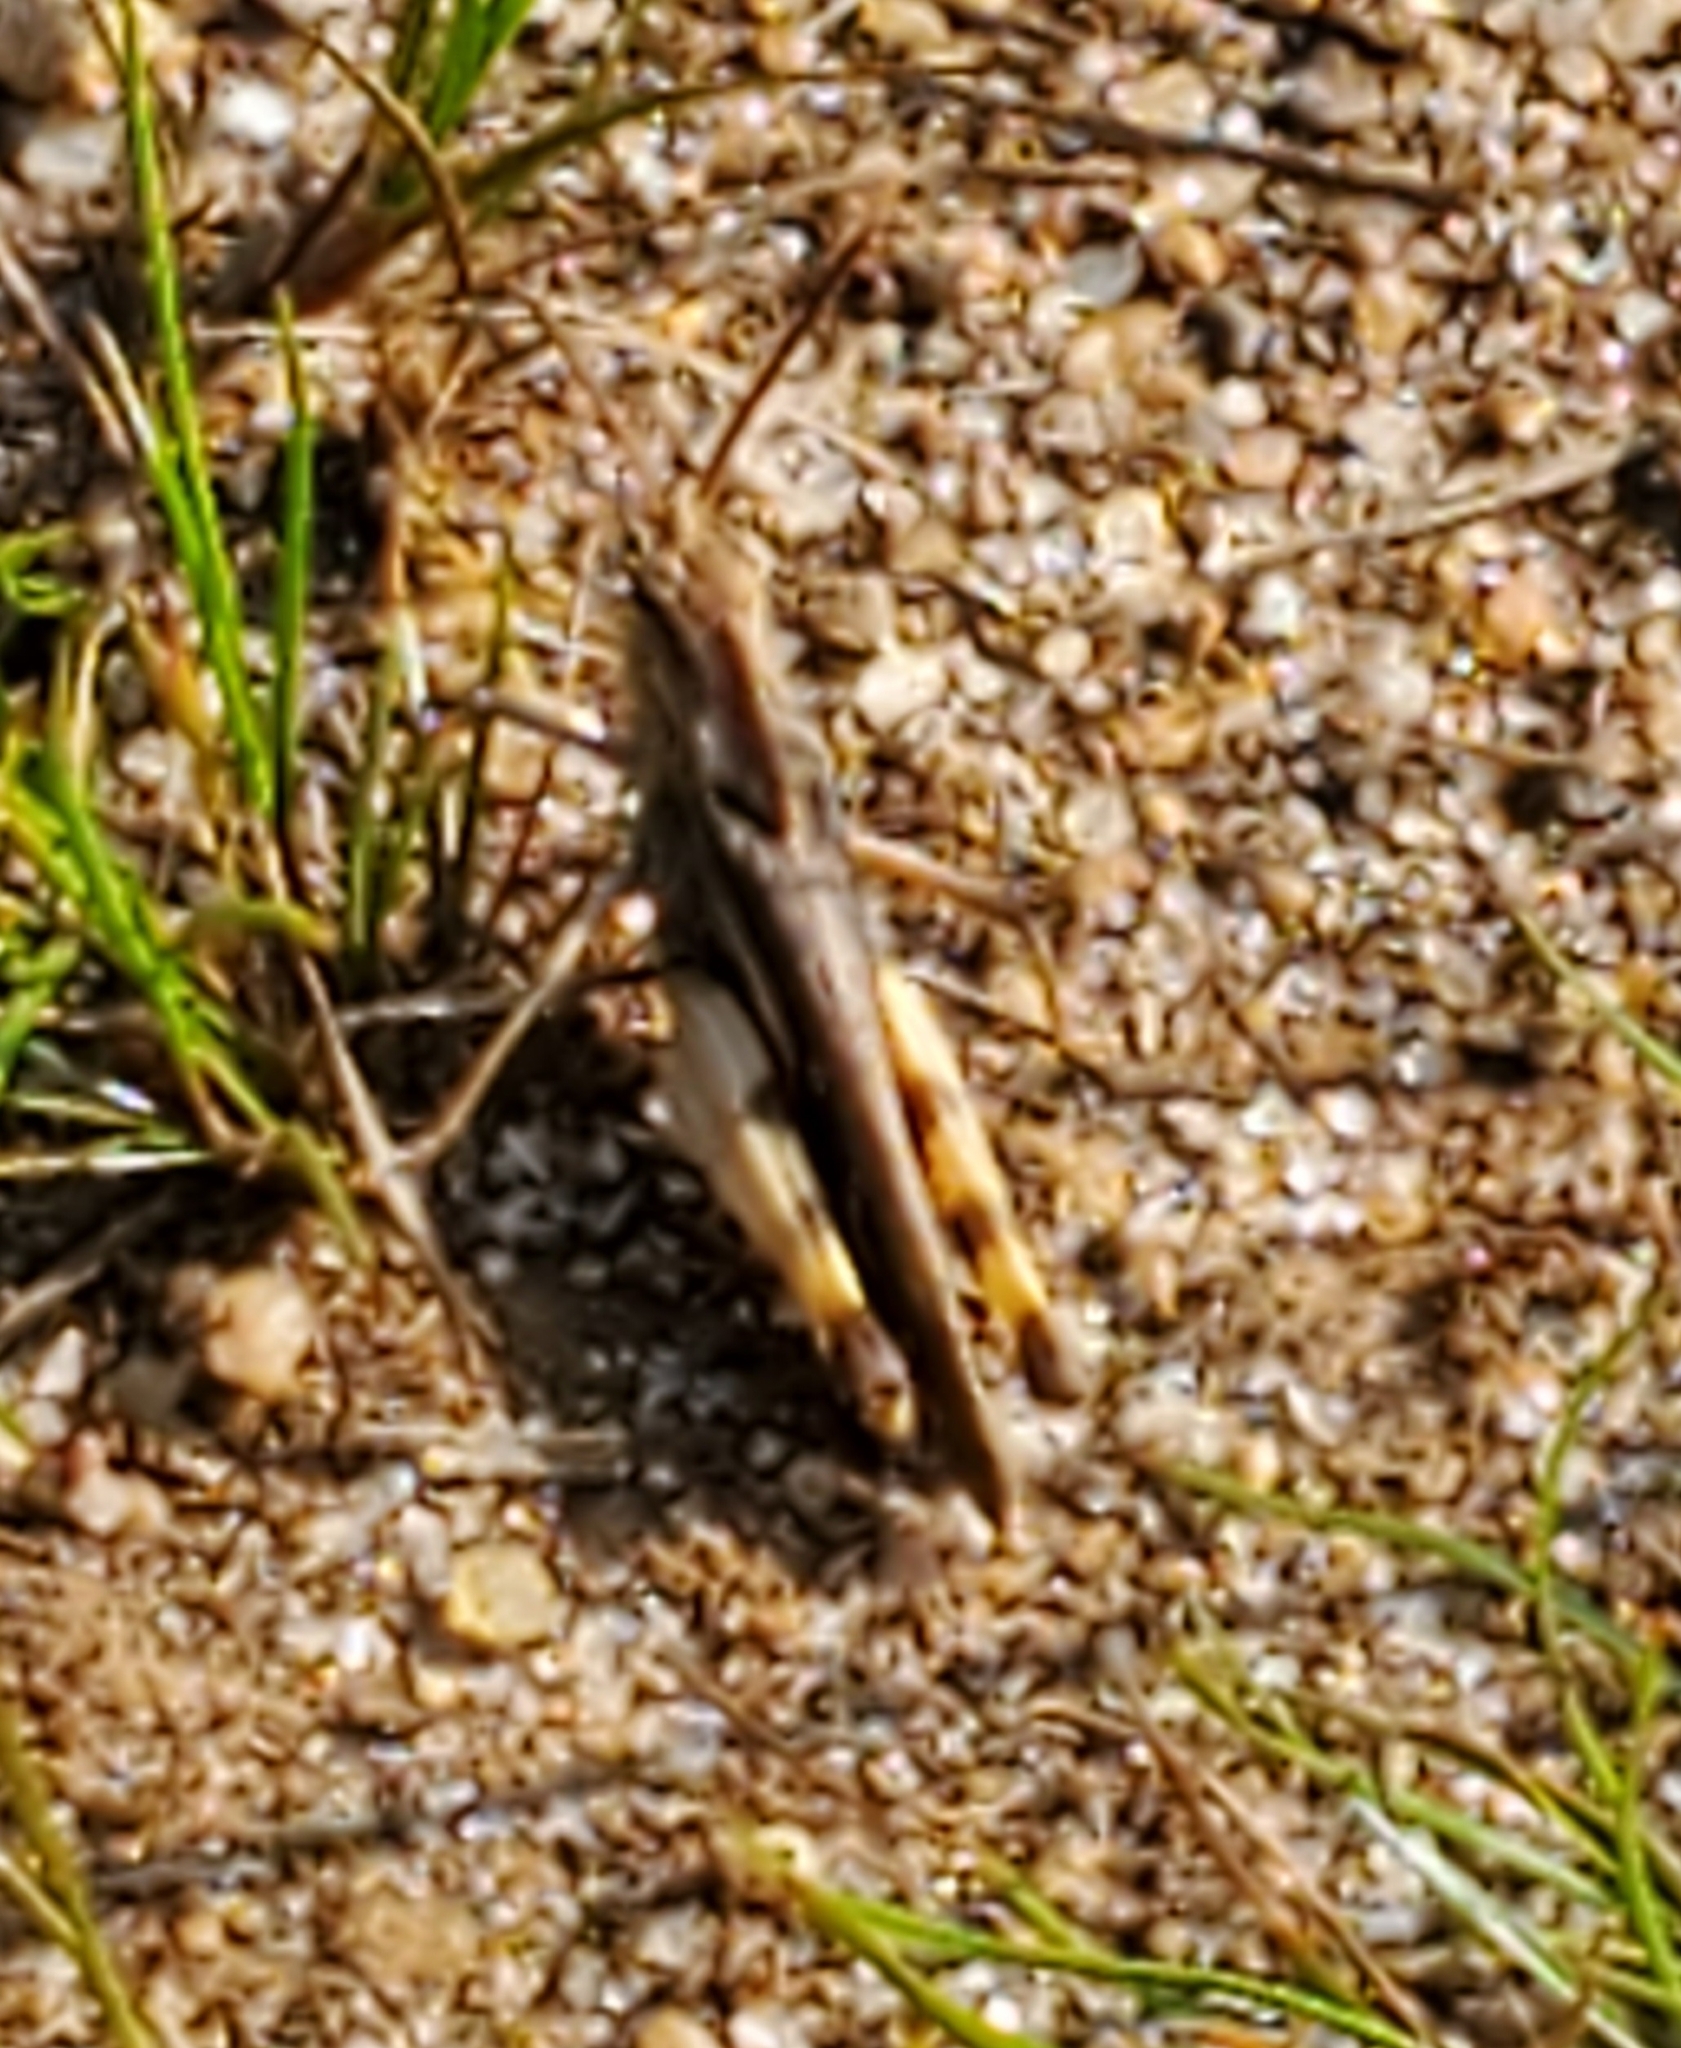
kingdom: Animalia
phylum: Arthropoda
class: Insecta
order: Orthoptera
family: Acrididae
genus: Chortophaga
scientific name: Chortophaga viridifasciata
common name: Green-striped grasshopper
